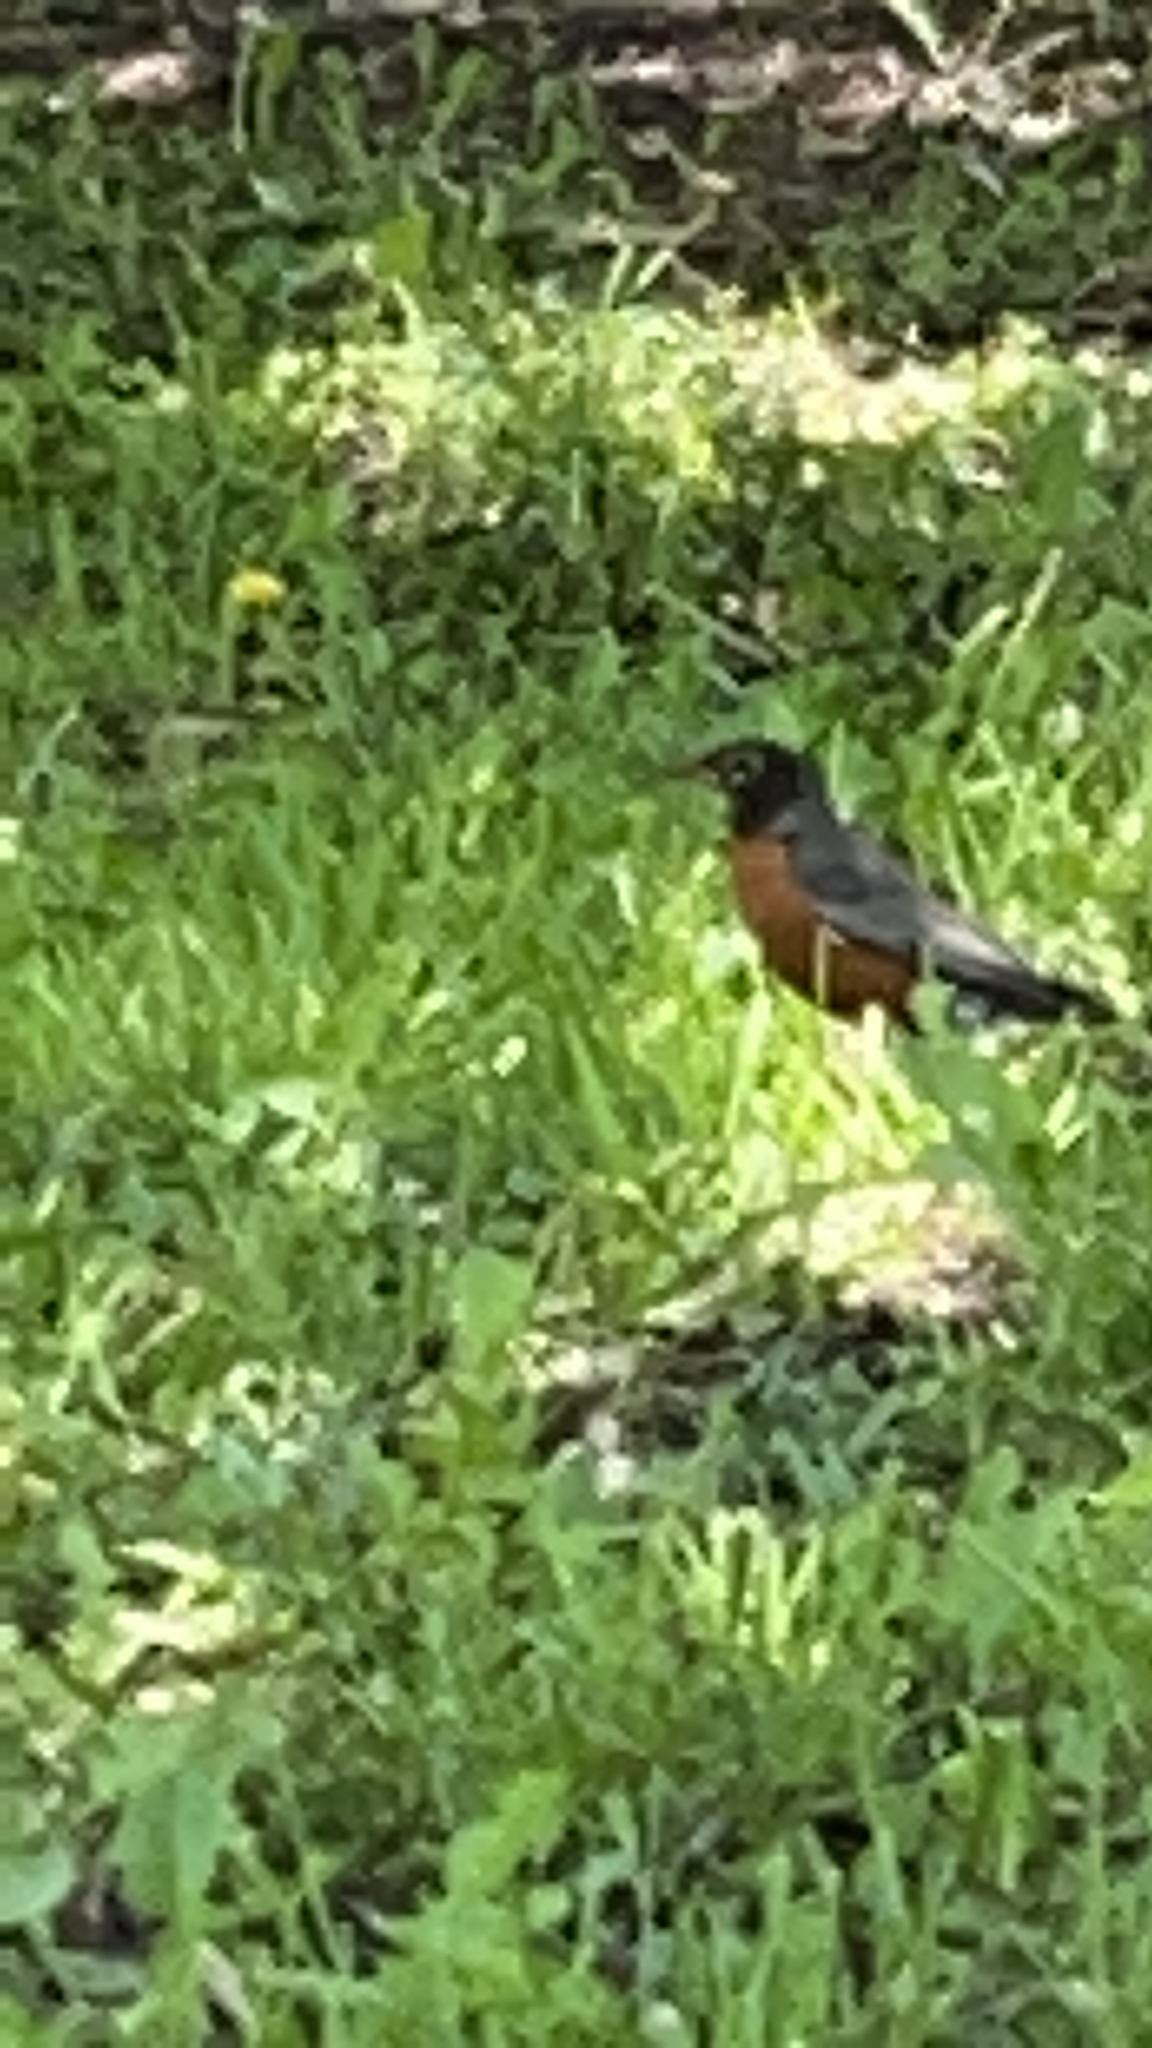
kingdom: Animalia
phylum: Chordata
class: Aves
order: Passeriformes
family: Turdidae
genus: Turdus
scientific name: Turdus migratorius
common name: American robin
